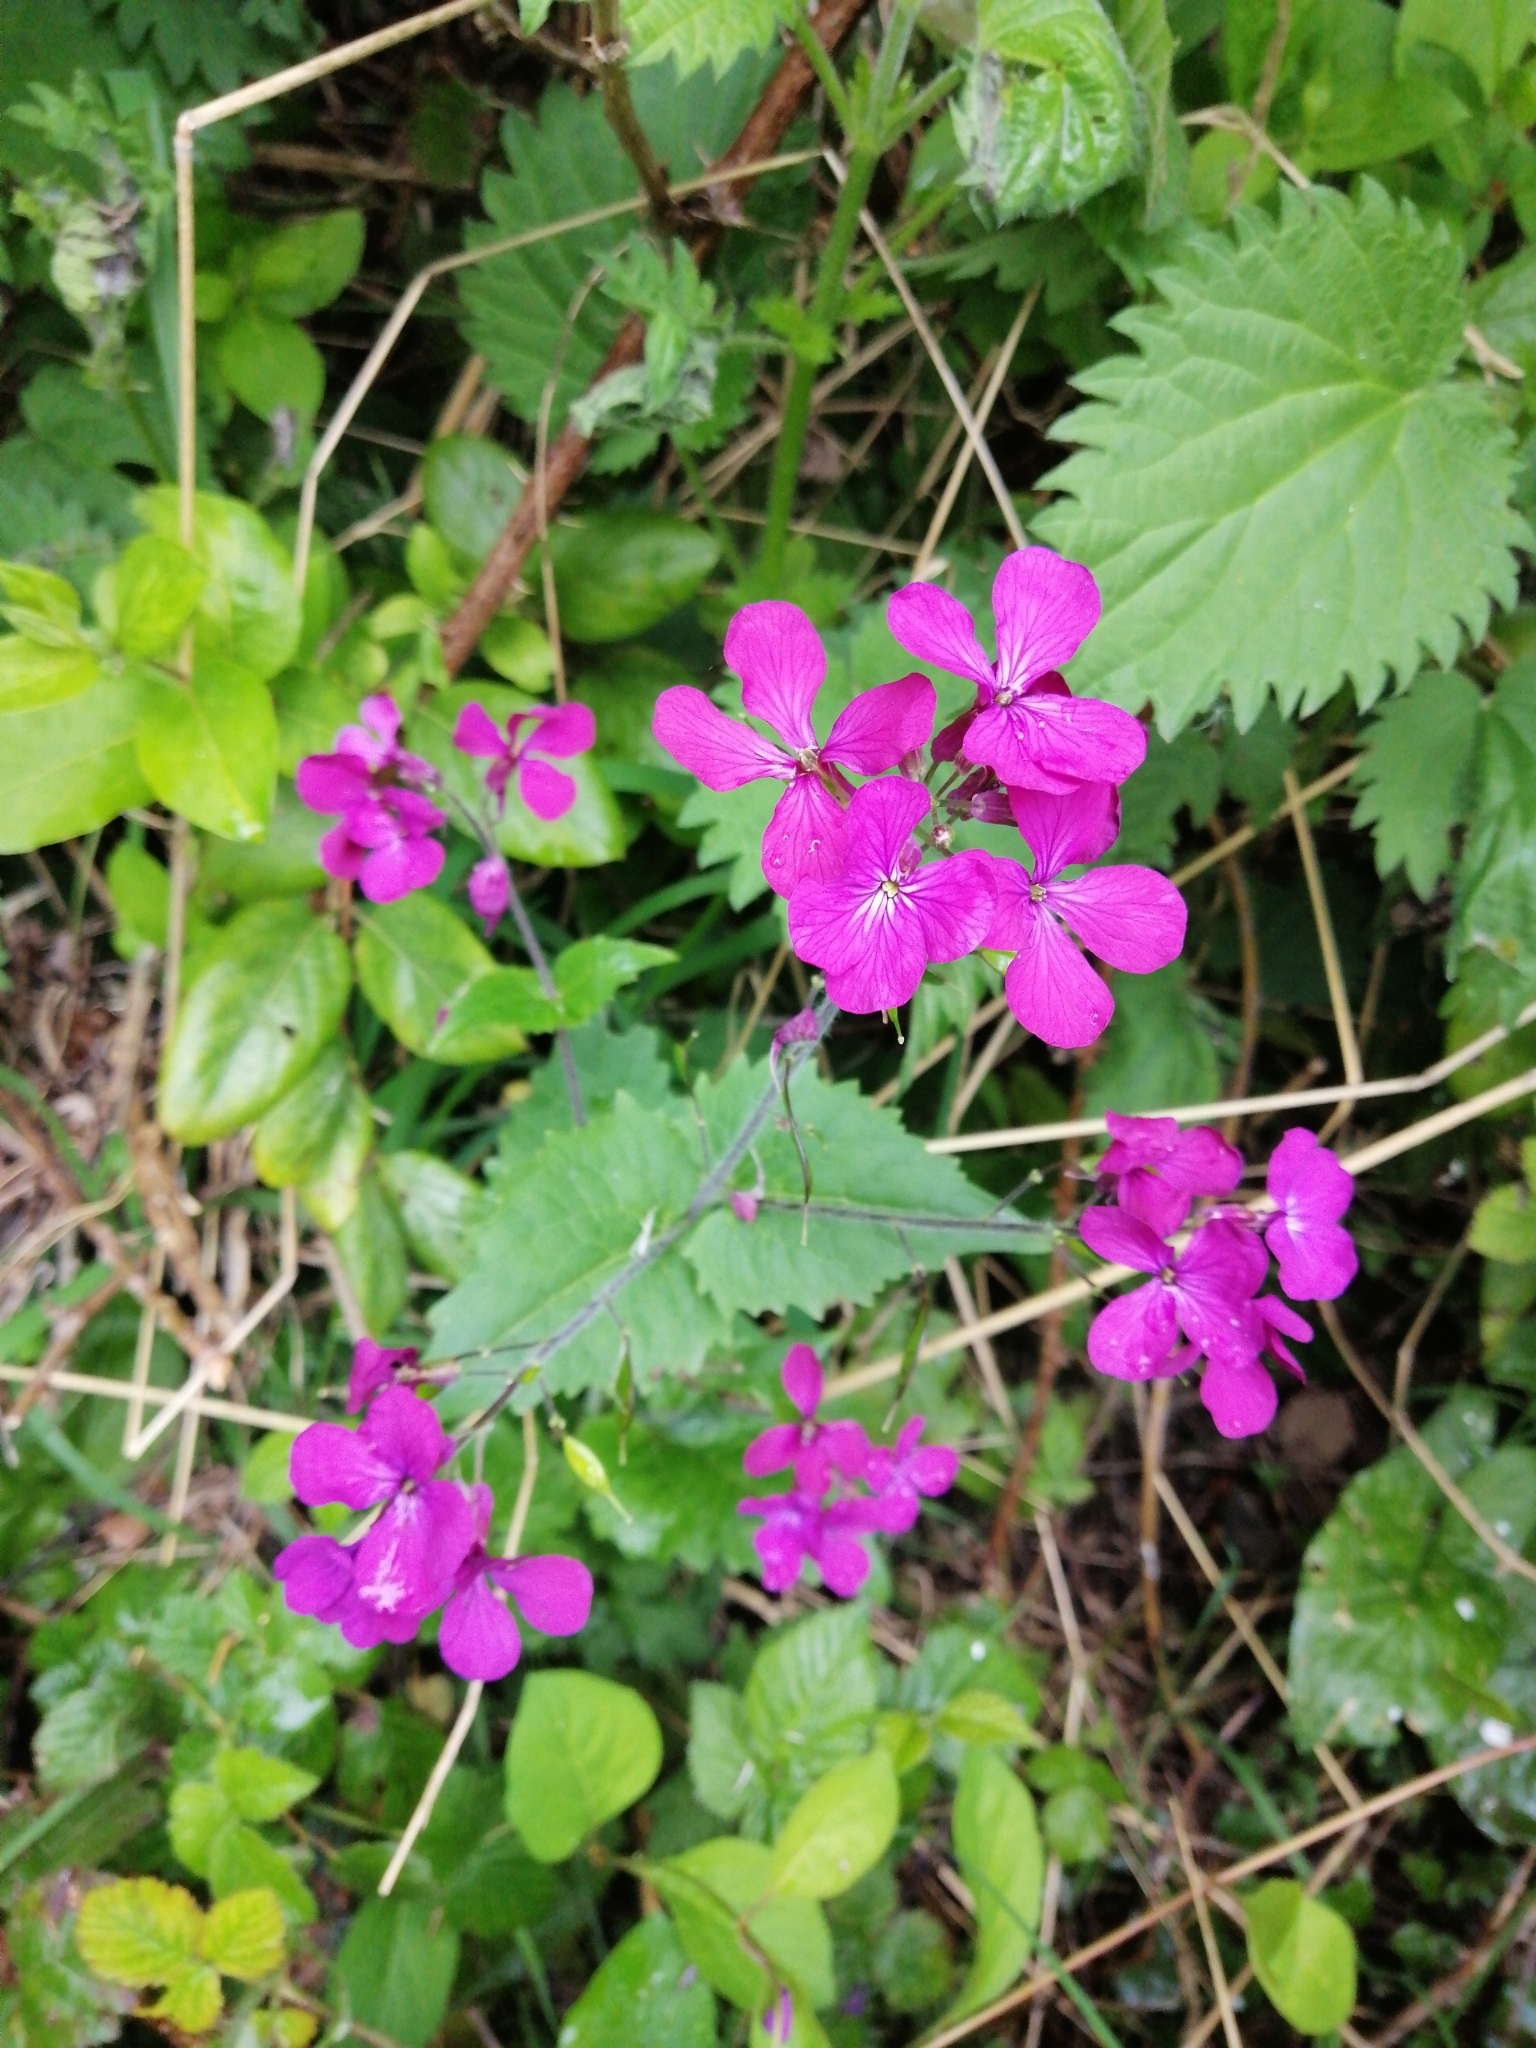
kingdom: Plantae
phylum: Tracheophyta
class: Magnoliopsida
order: Brassicales
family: Brassicaceae
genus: Lunaria
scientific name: Lunaria annua
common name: Honesty
